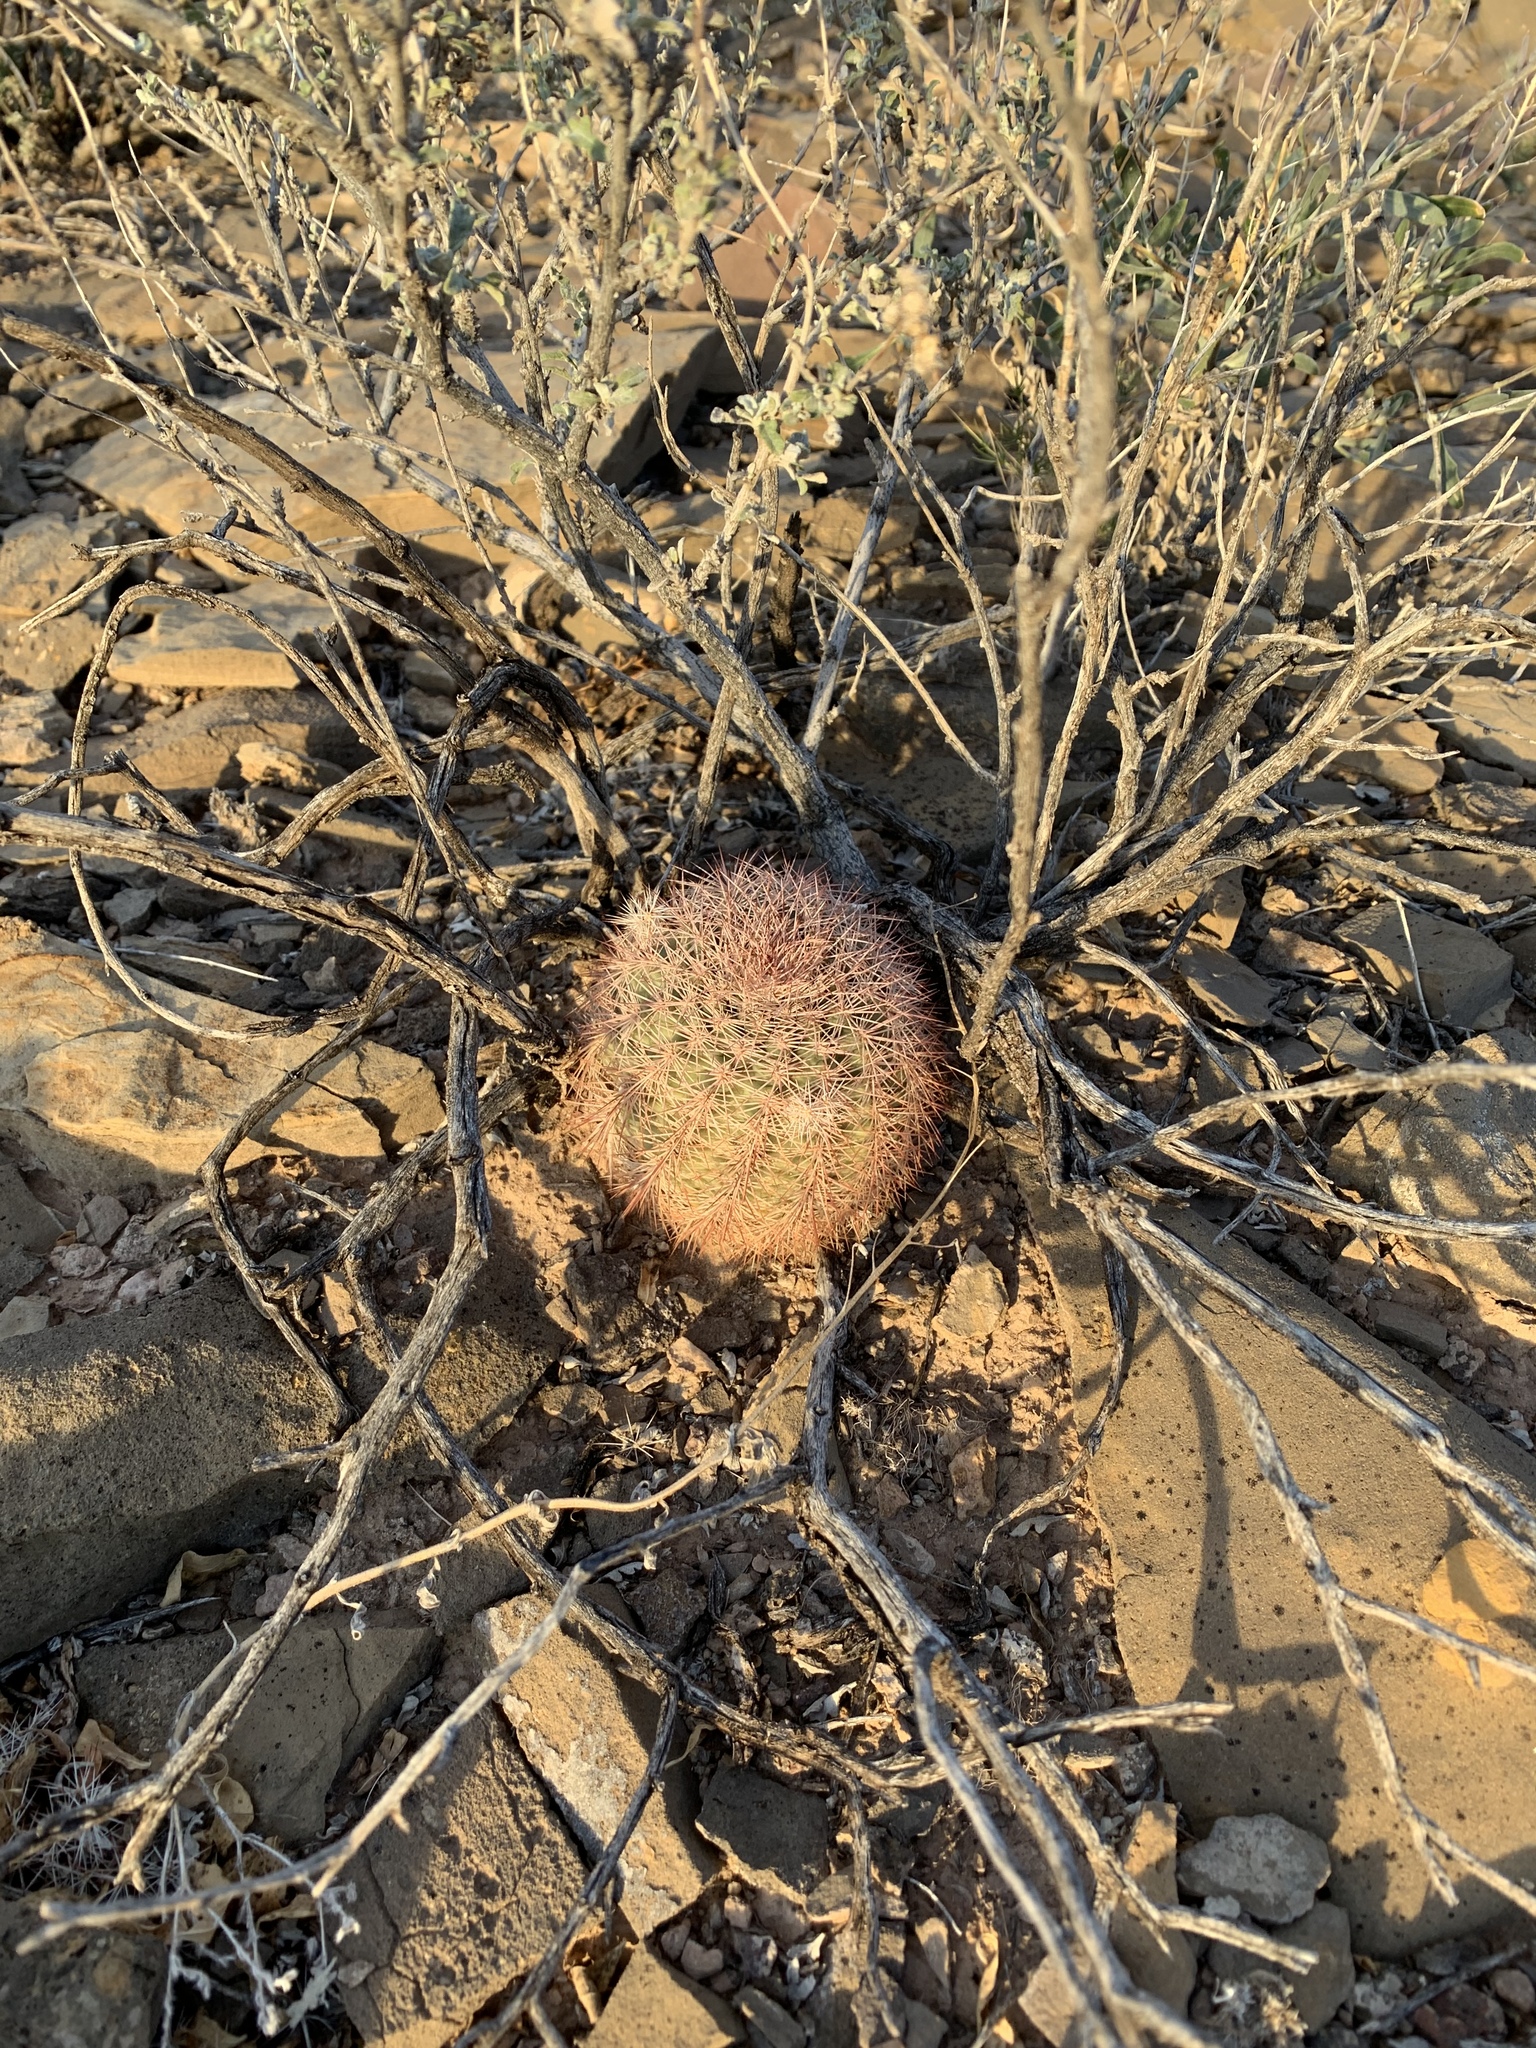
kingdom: Plantae
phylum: Tracheophyta
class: Magnoliopsida
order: Caryophyllales
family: Cactaceae
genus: Echinocereus
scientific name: Echinocereus dasyacanthus
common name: Spiny hedgehog cactus
